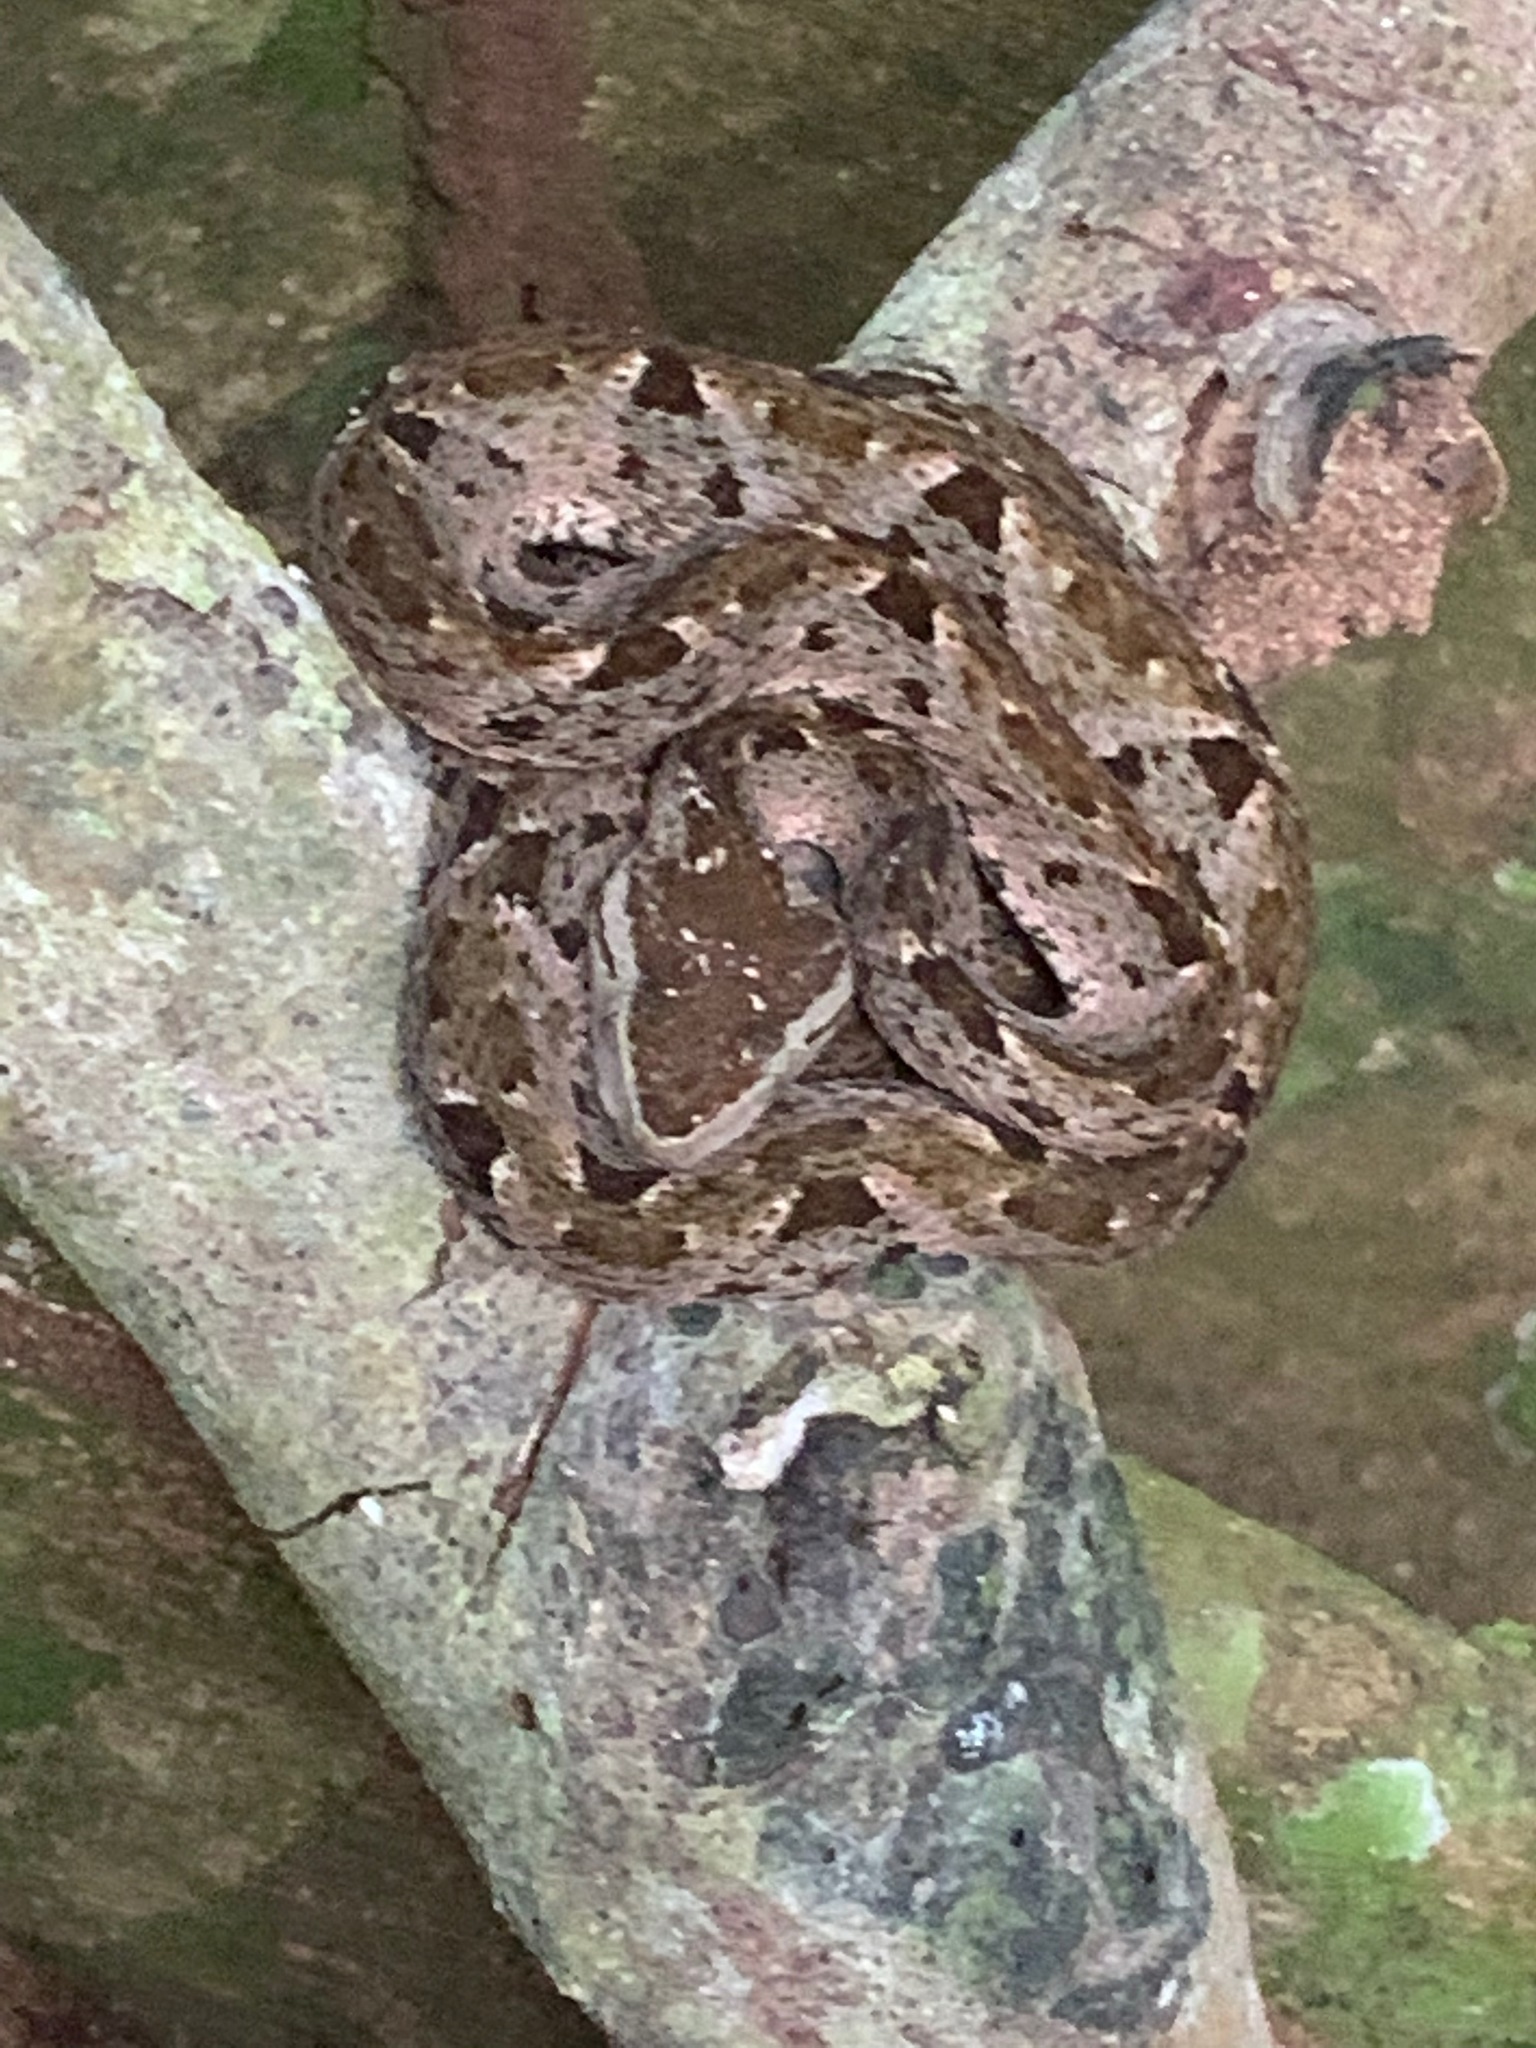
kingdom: Animalia
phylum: Chordata
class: Squamata
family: Viperidae
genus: Bothrops
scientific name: Bothrops asper
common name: Terciopelo
